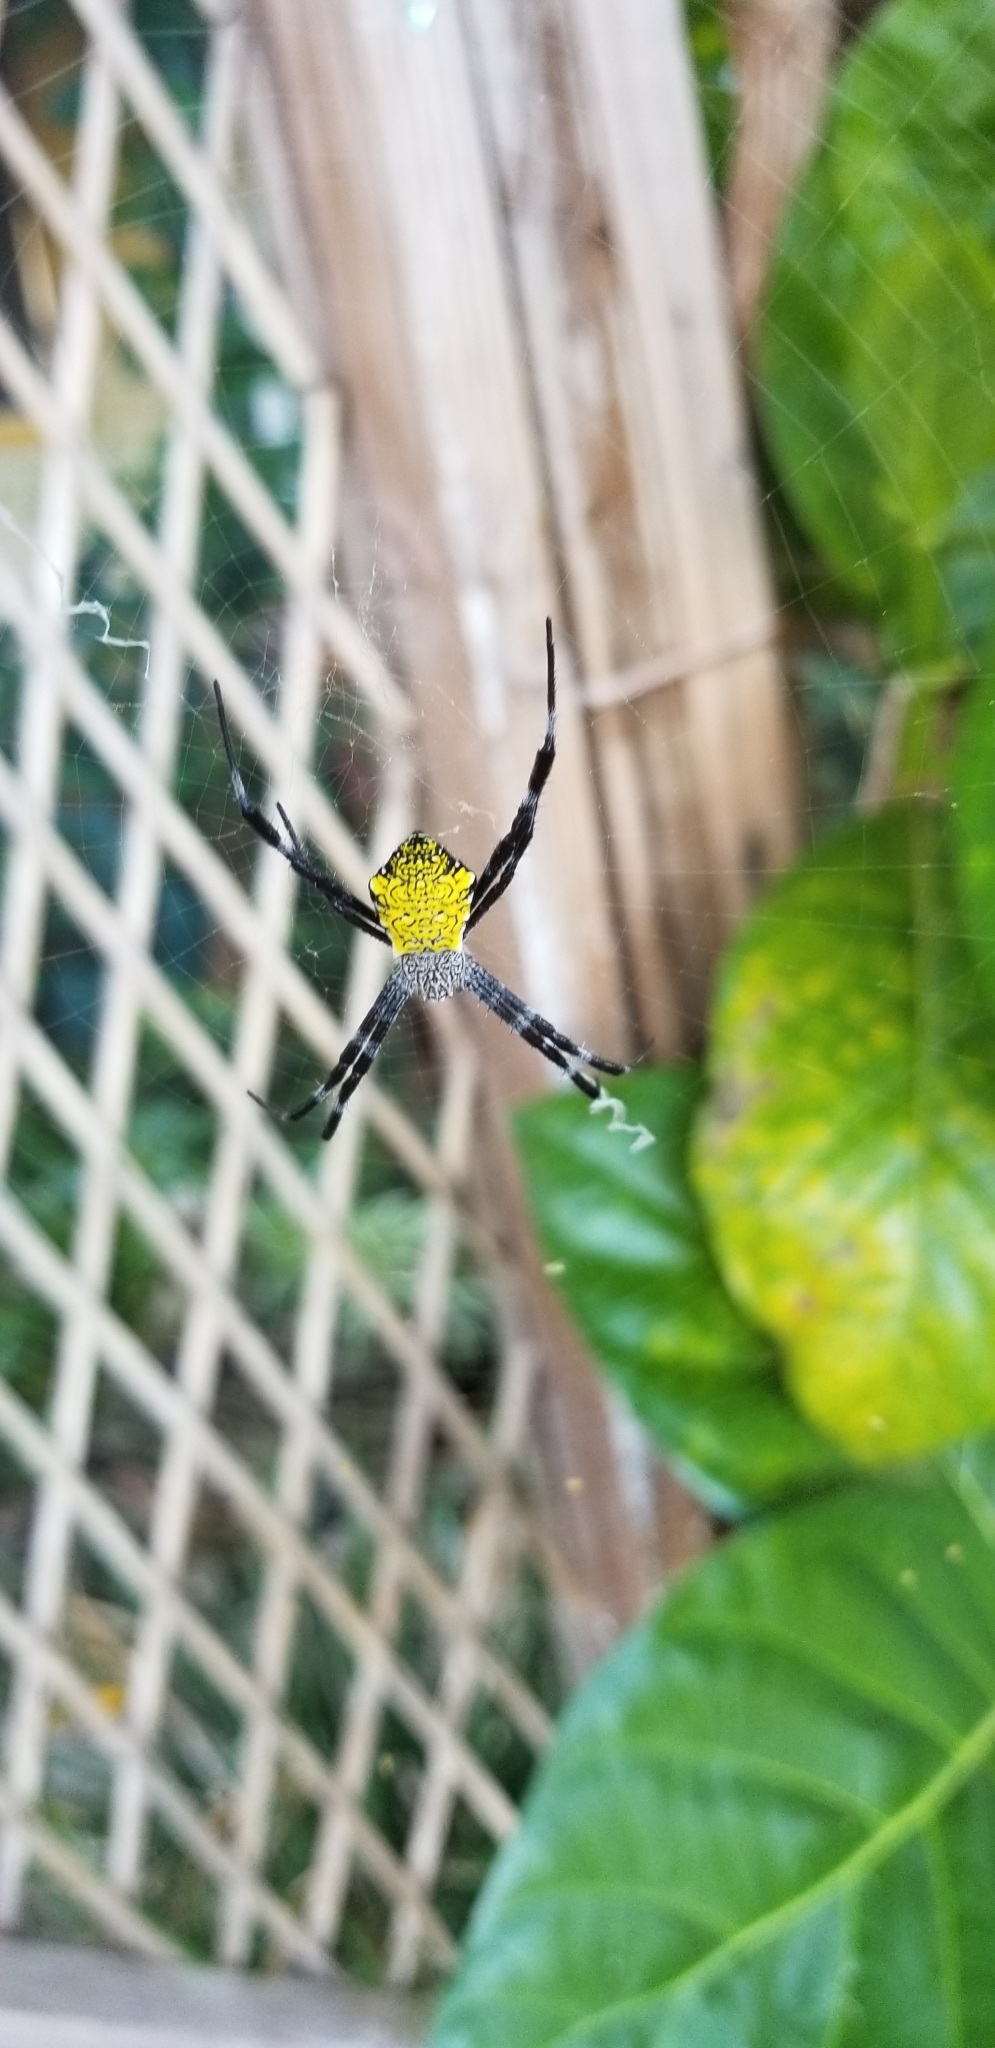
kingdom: Animalia
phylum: Arthropoda
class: Arachnida
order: Araneae
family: Araneidae
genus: Argiope
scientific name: Argiope appensa
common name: Garden spider
